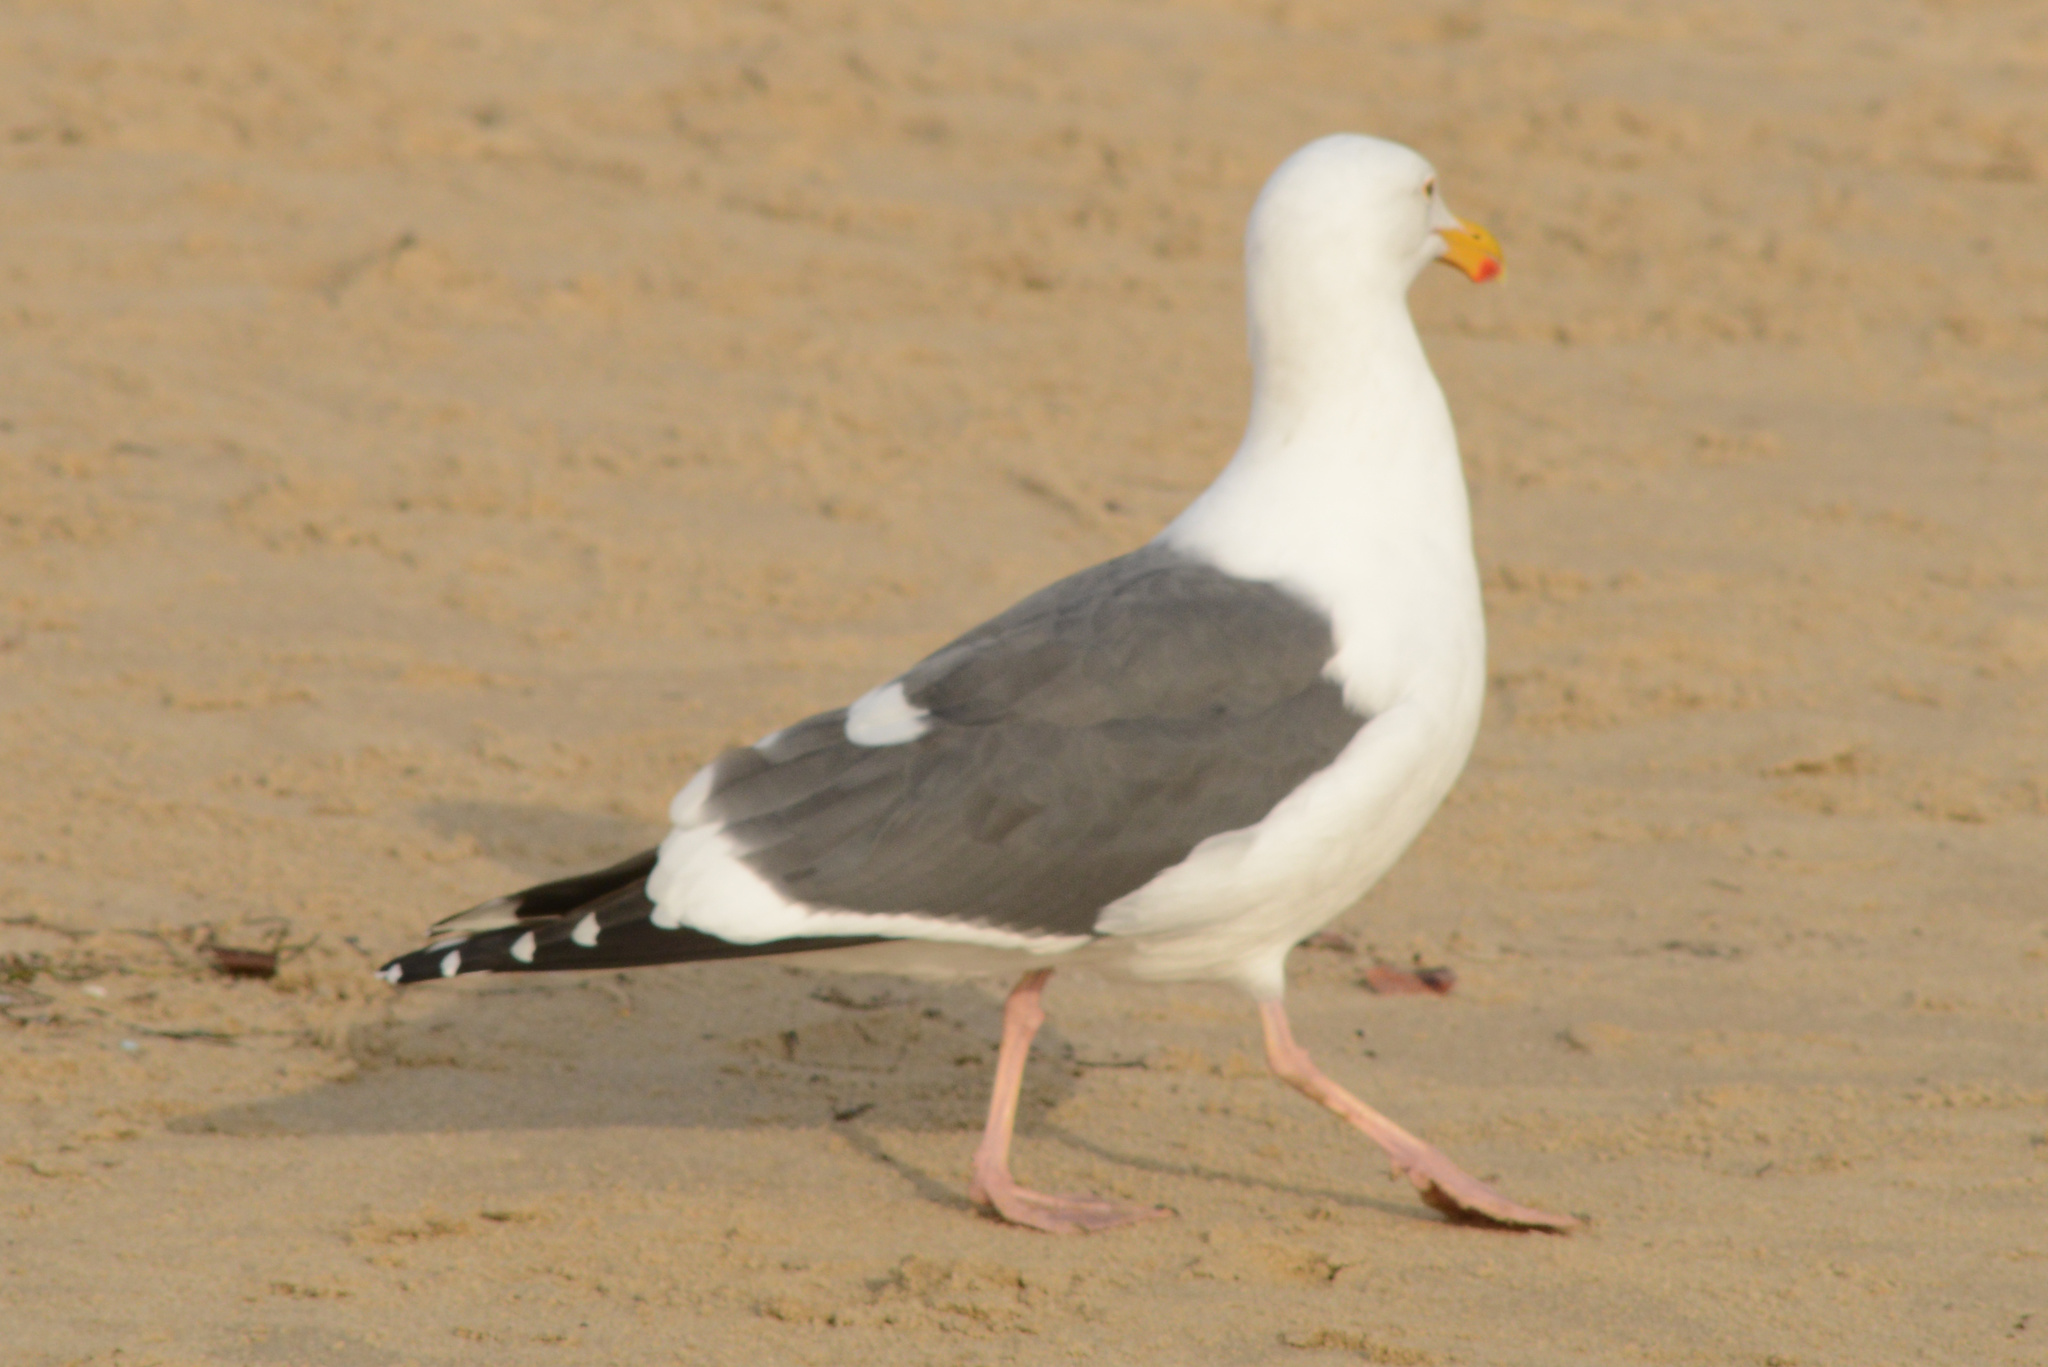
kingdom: Animalia
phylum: Chordata
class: Aves
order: Charadriiformes
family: Laridae
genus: Larus
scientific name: Larus occidentalis
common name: Western gull
